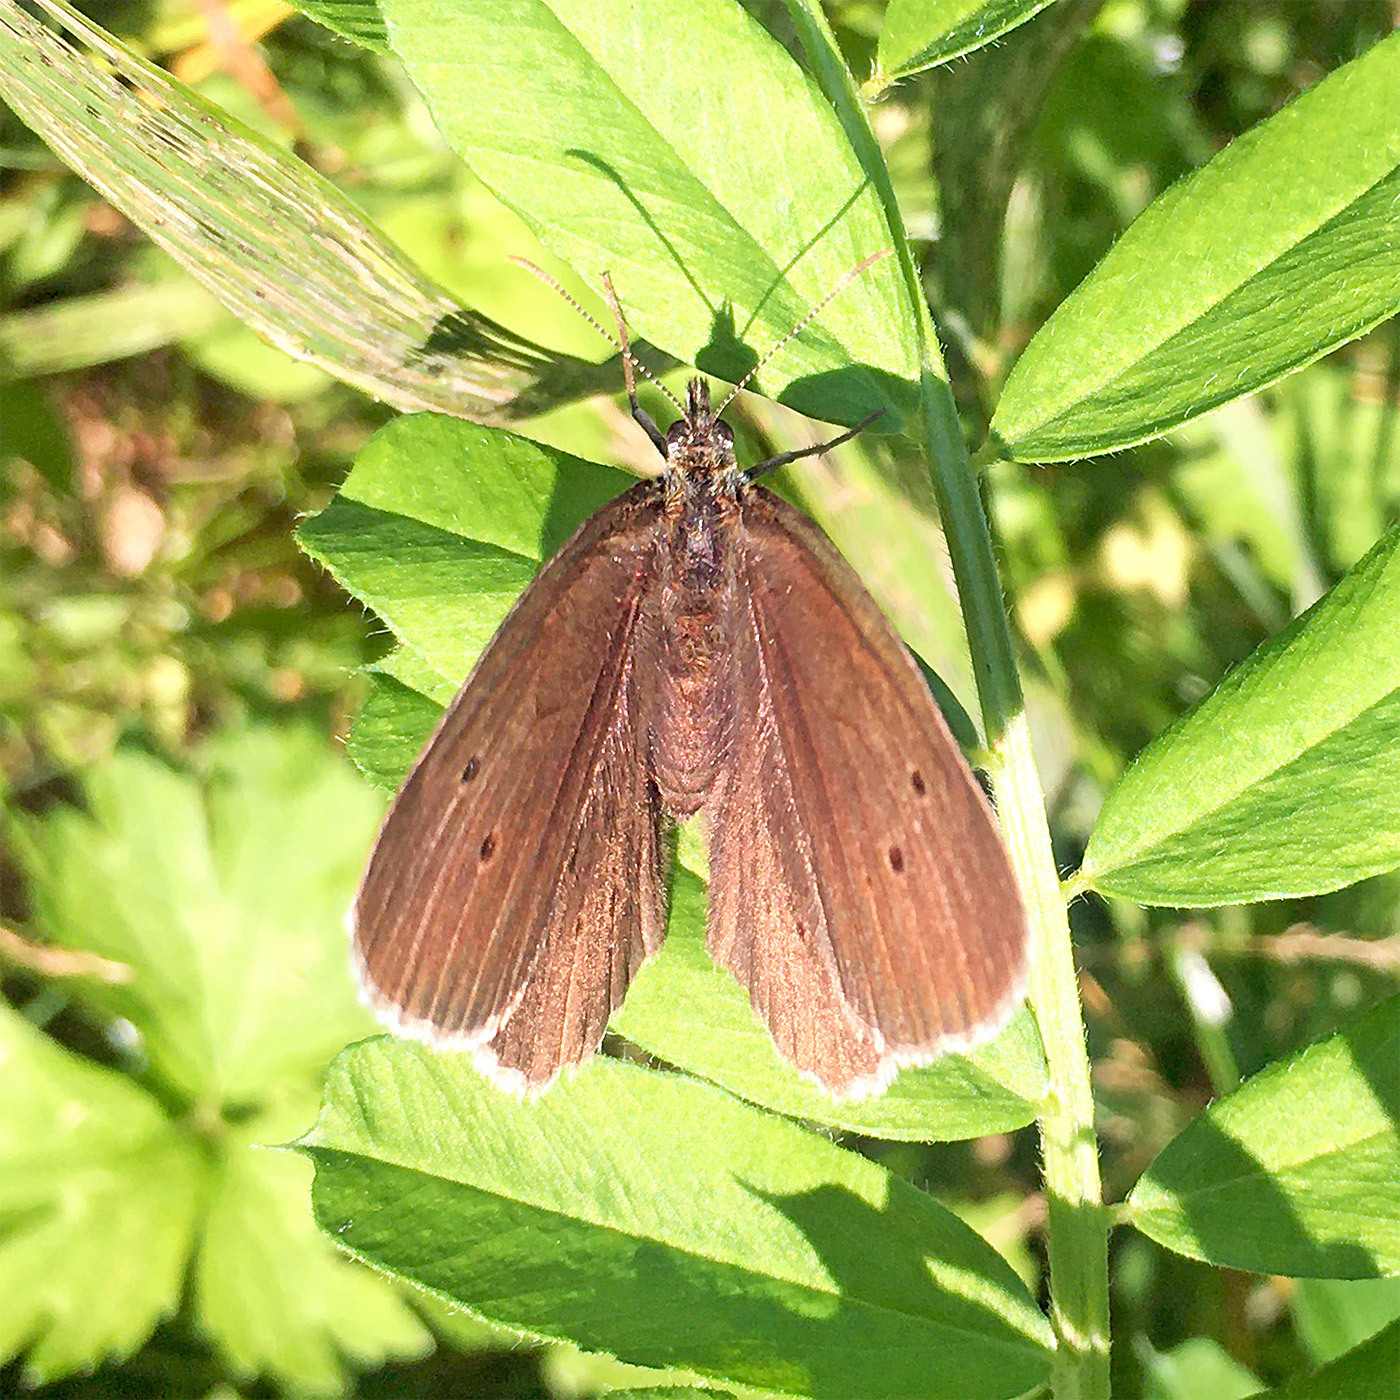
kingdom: Animalia
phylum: Arthropoda
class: Insecta
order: Lepidoptera
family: Nymphalidae
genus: Aphantopus
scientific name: Aphantopus hyperantus
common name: Ringlet
